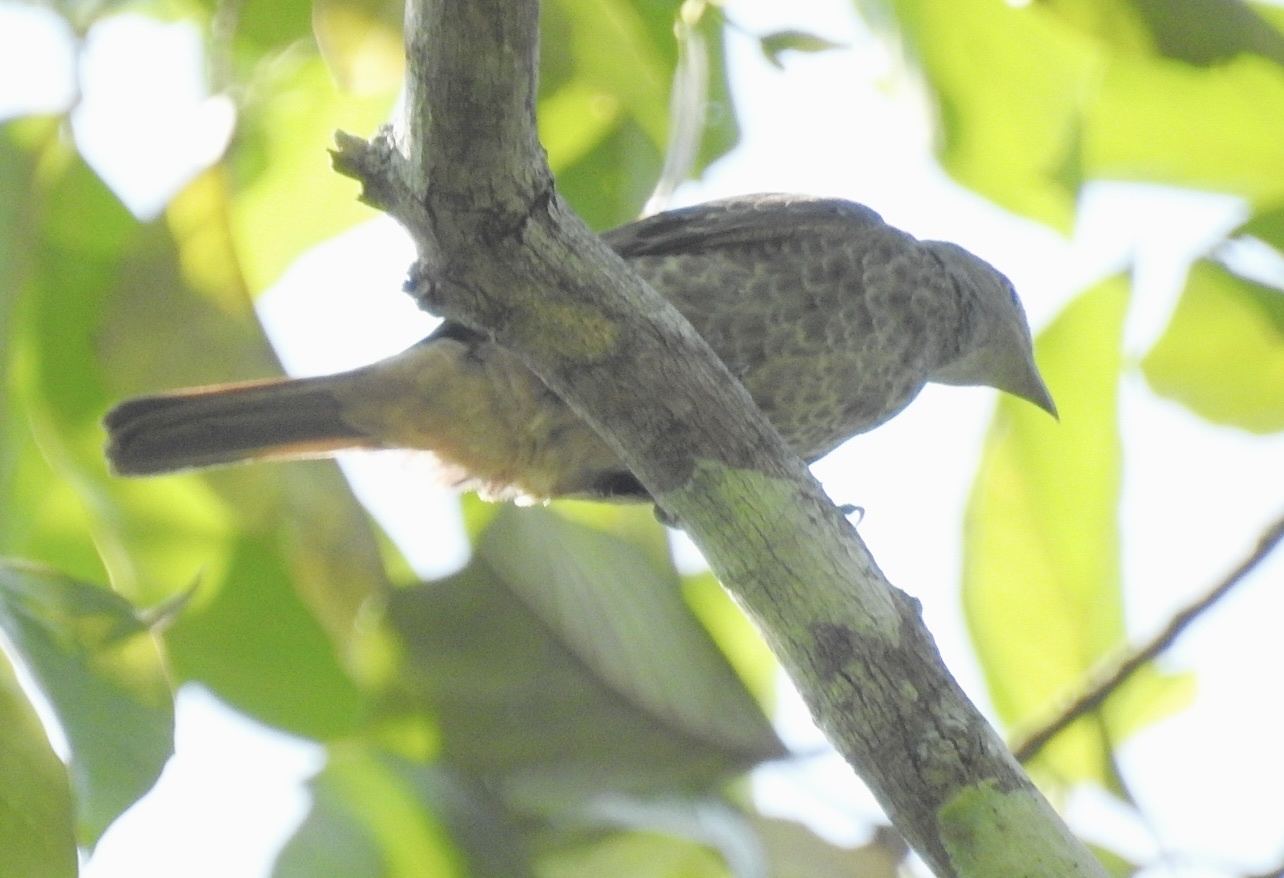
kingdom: Animalia
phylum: Chordata
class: Aves
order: Passeriformes
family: Cotingidae
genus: Cotinga
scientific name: Cotinga maynana
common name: Plum-throated cotinga
